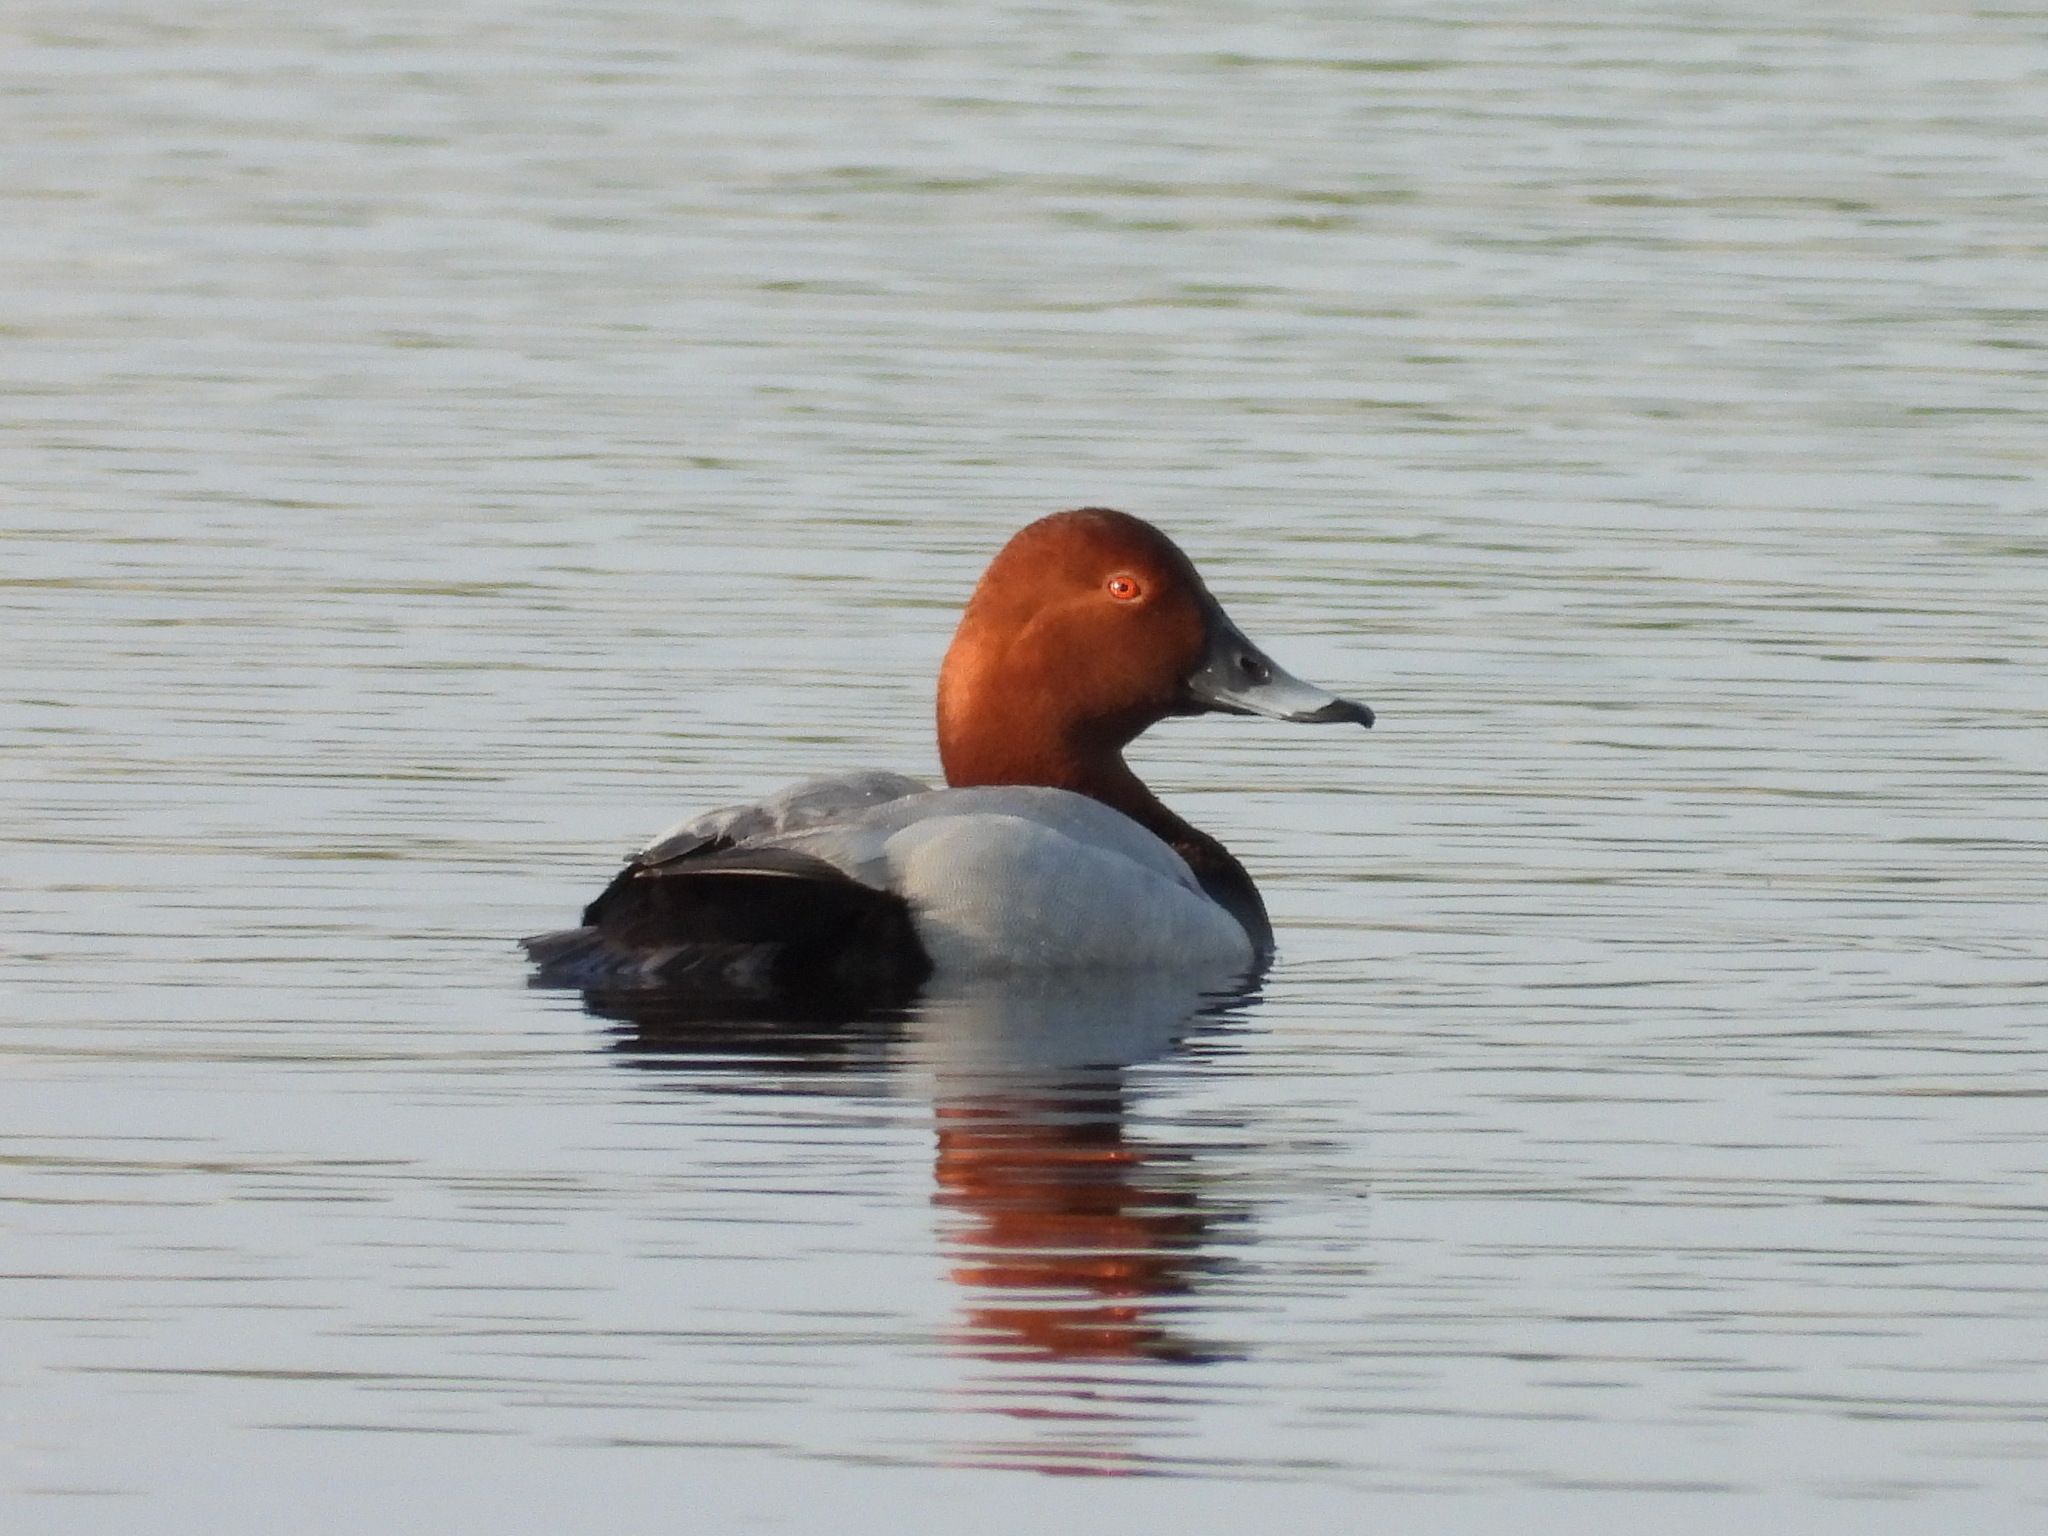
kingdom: Animalia
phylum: Chordata
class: Aves
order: Anseriformes
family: Anatidae
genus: Aythya
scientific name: Aythya ferina
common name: Common pochard
